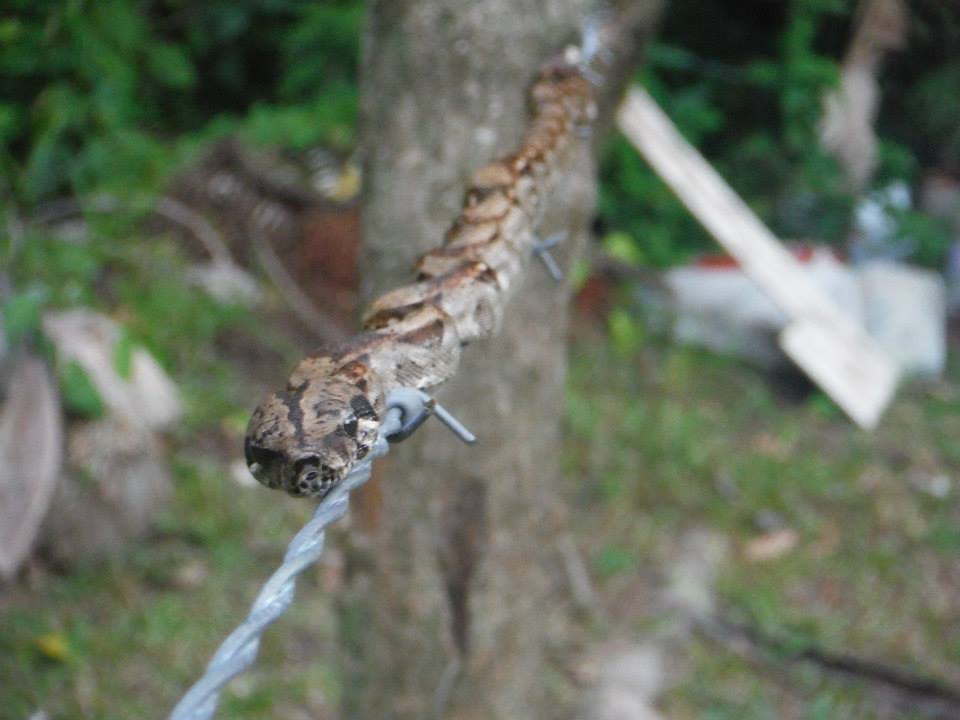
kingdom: Animalia
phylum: Chordata
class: Squamata
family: Boidae
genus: Boa
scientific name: Boa imperator
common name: Central american boa
